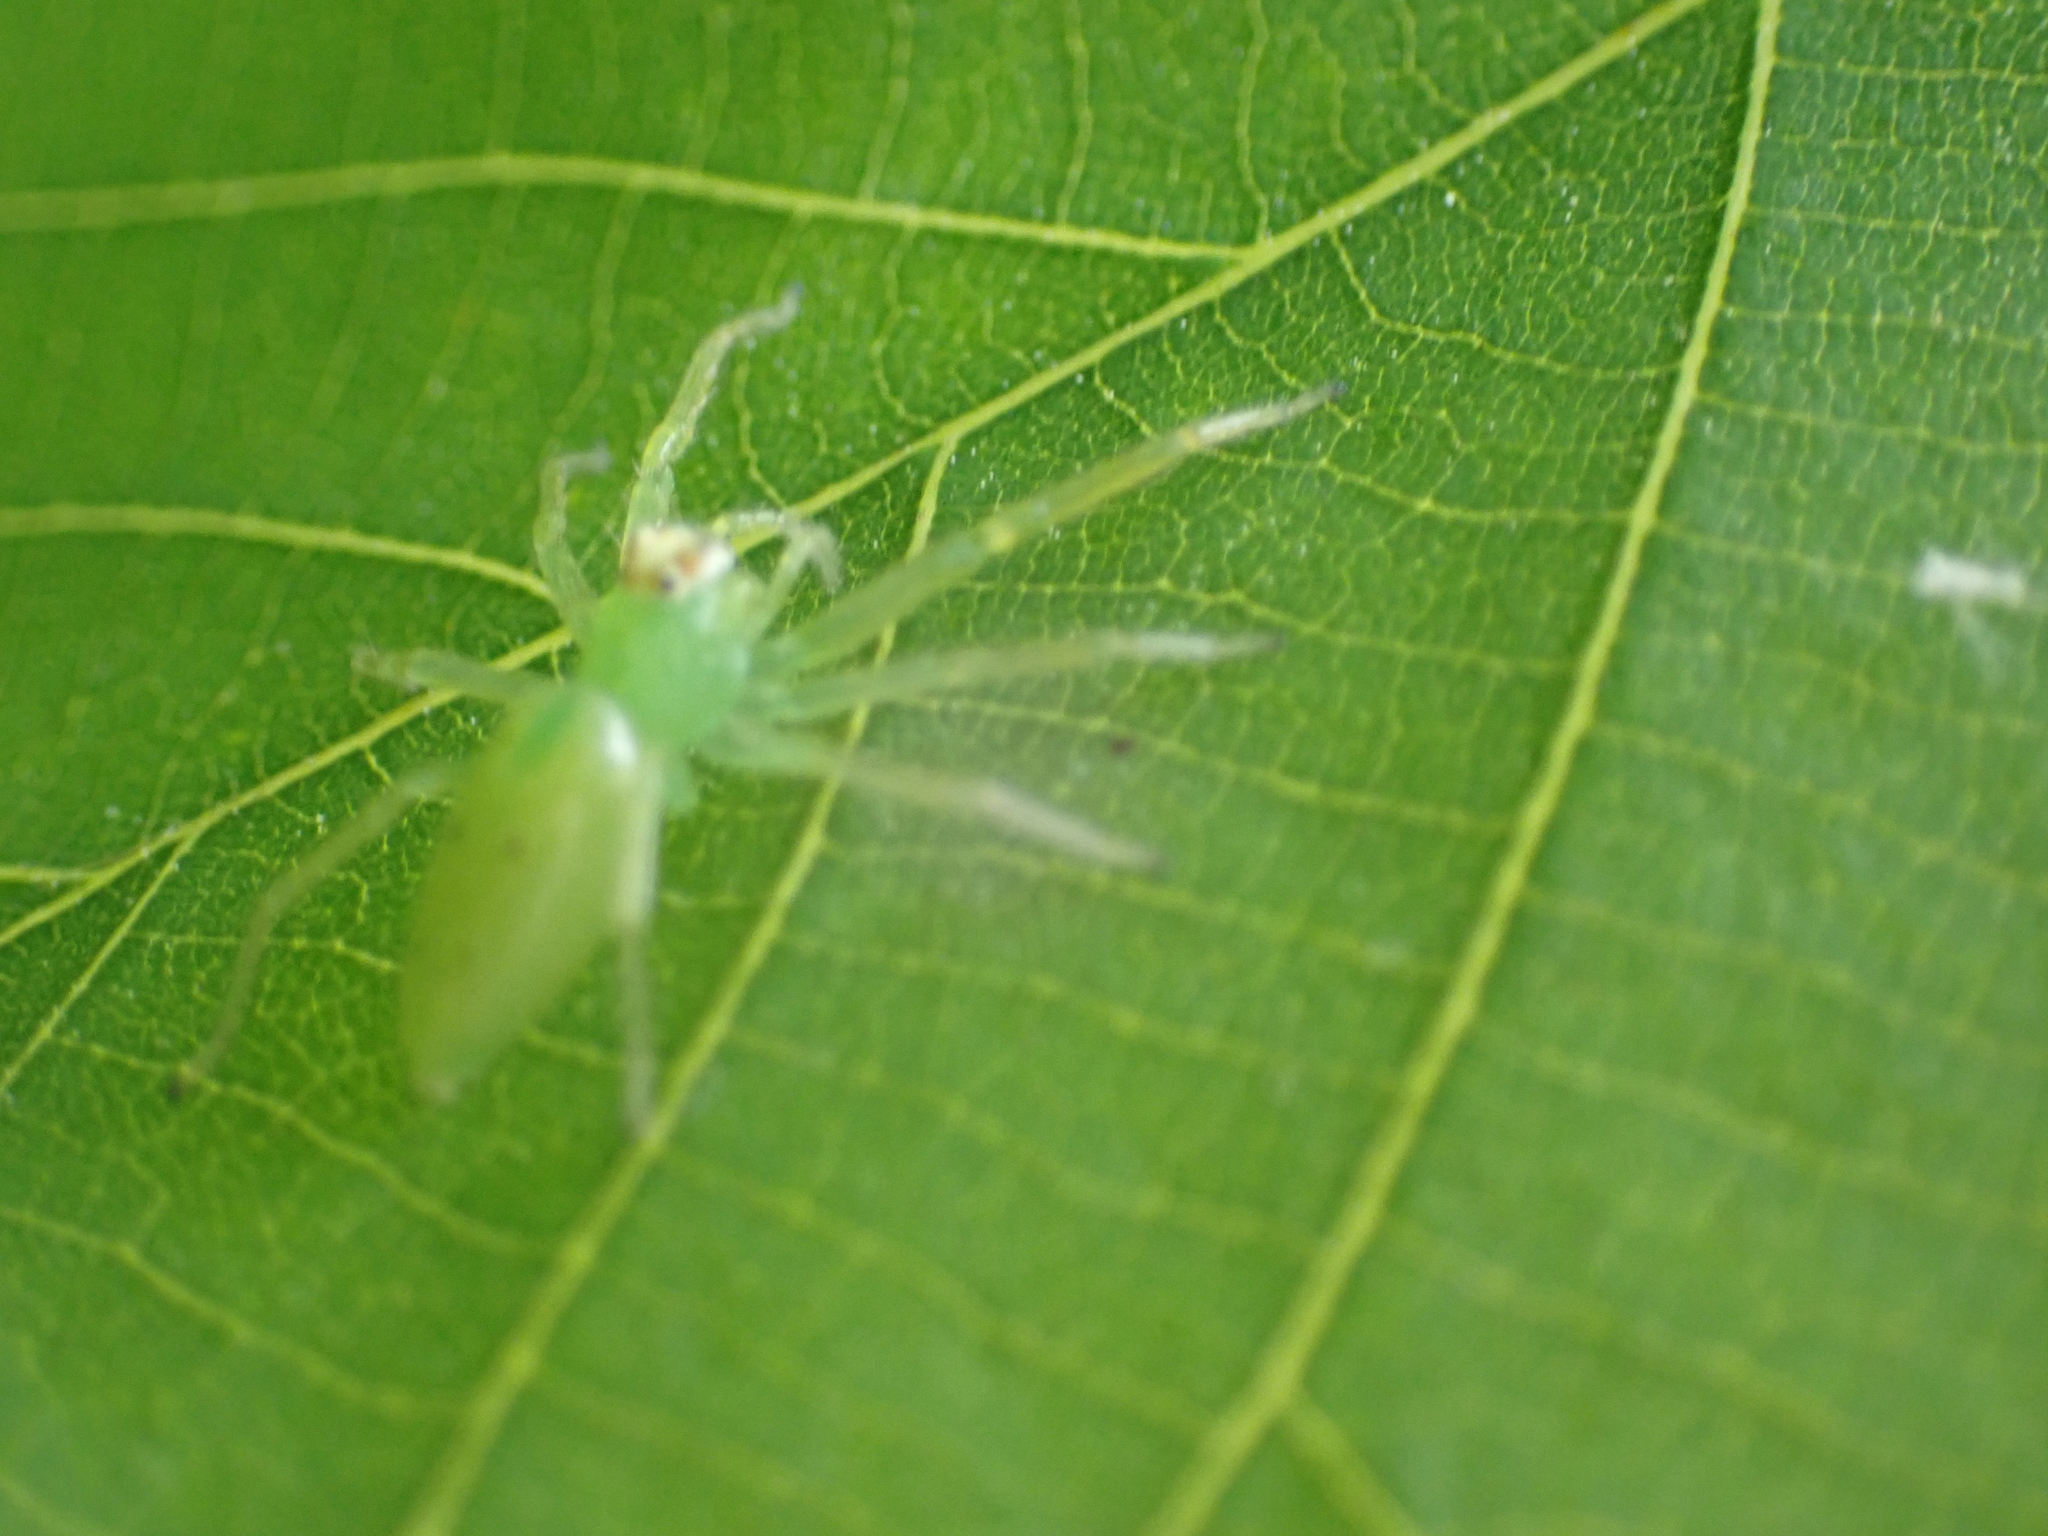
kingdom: Animalia
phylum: Arthropoda
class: Arachnida
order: Araneae
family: Salticidae
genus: Lyssomanes
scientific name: Lyssomanes viridis
